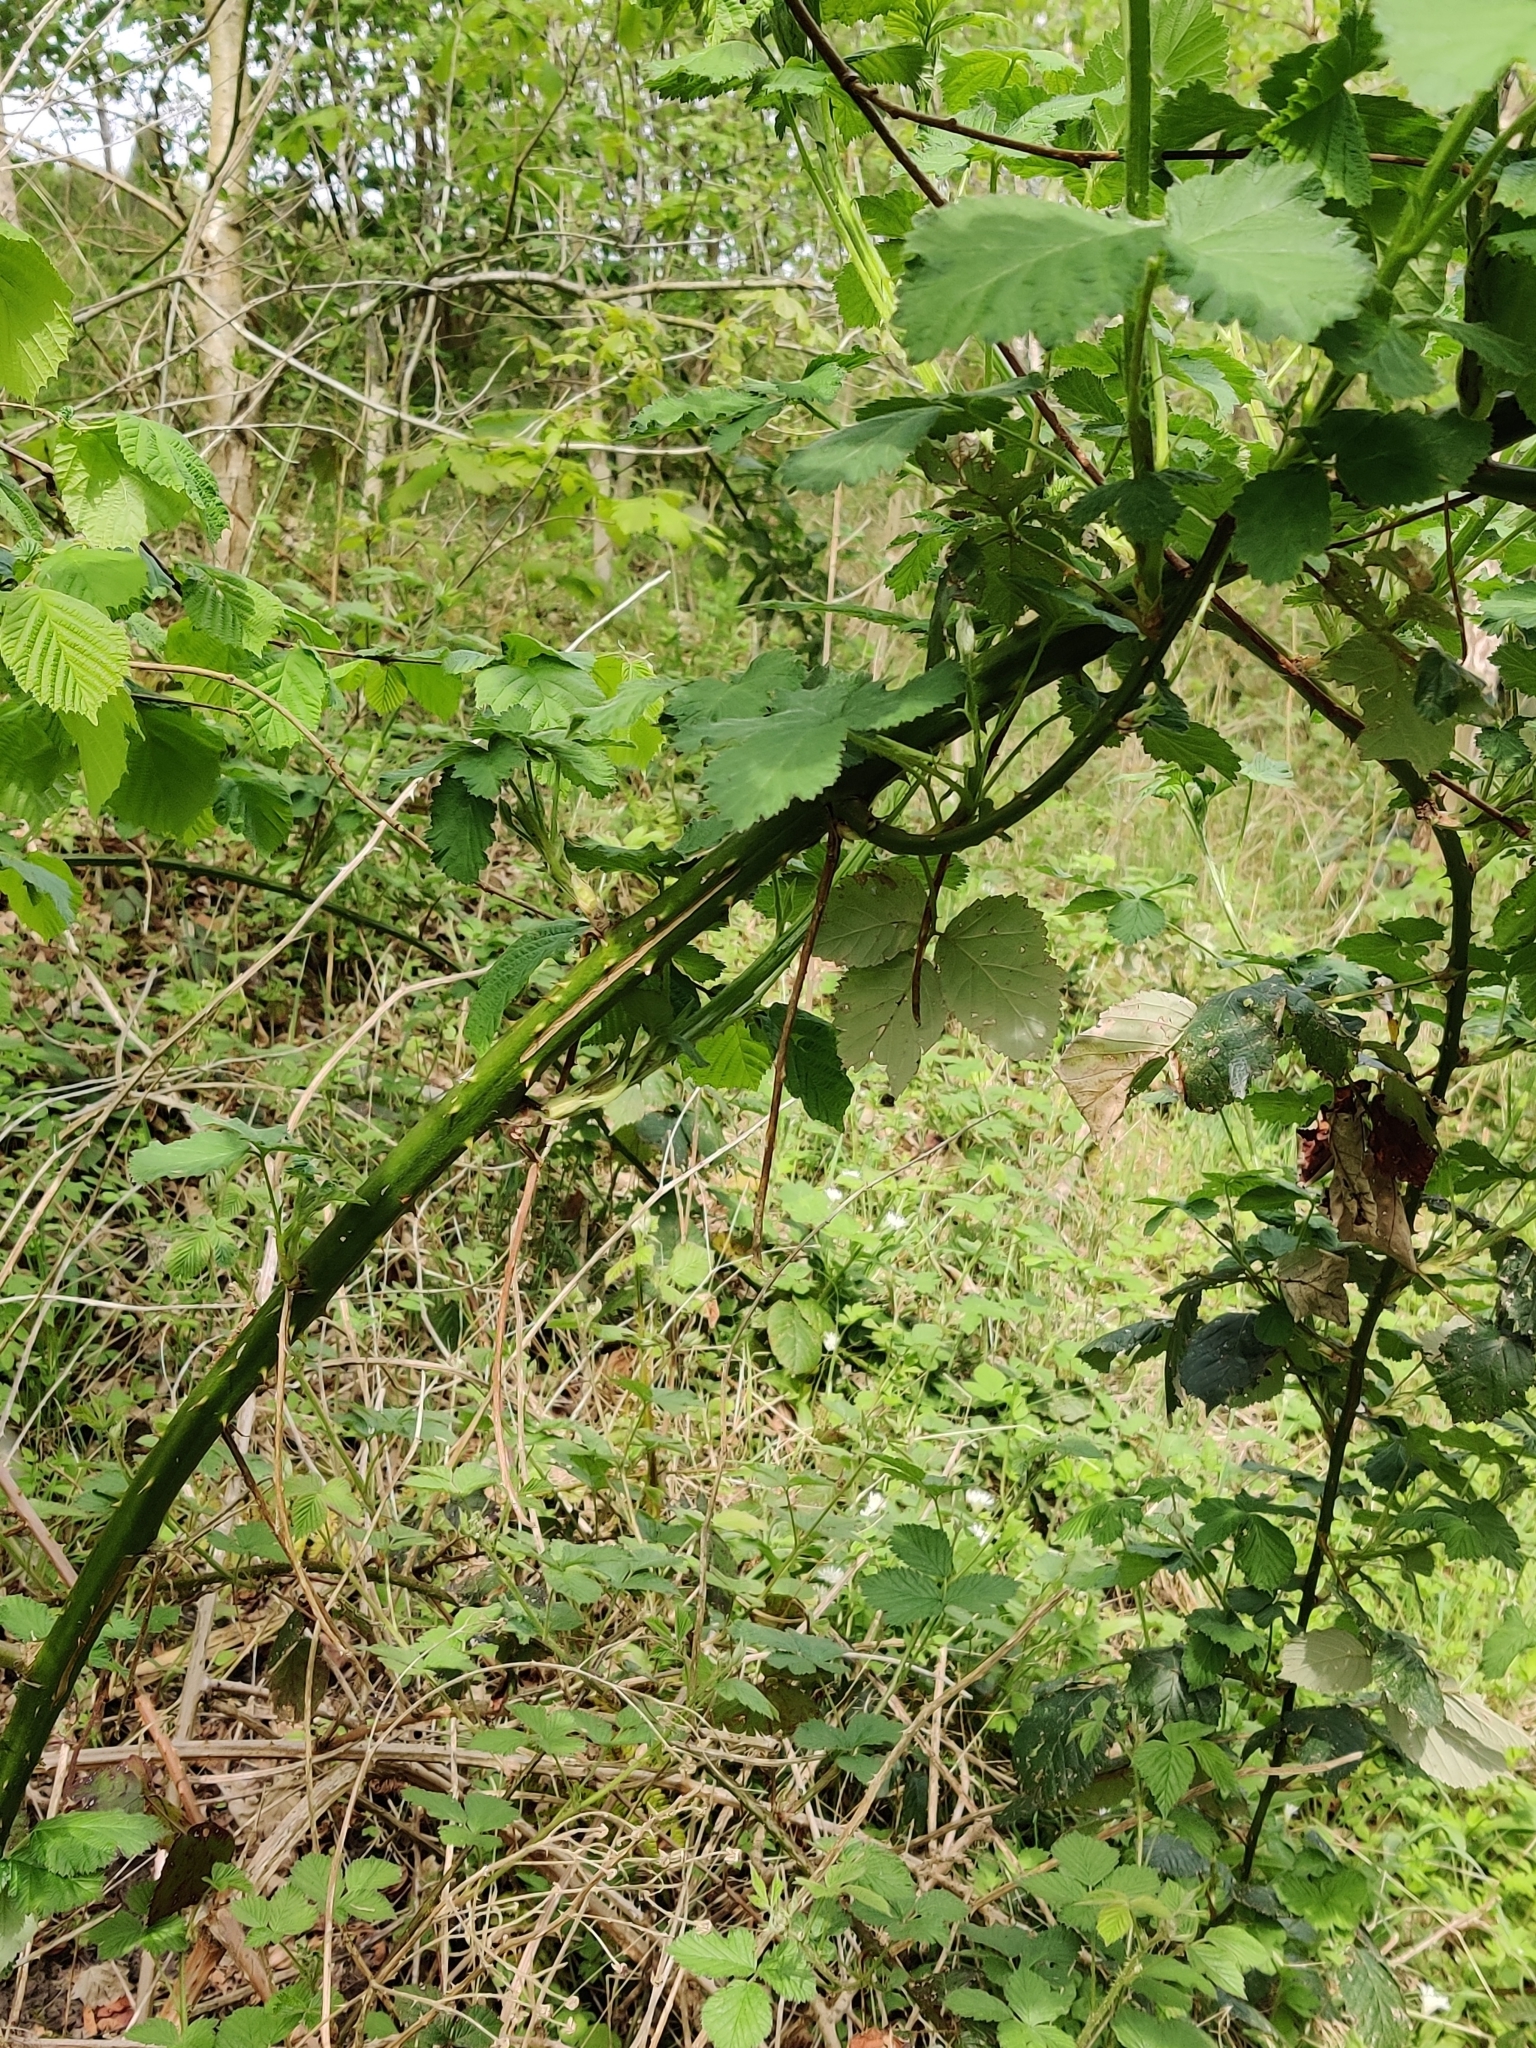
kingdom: Plantae
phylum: Tracheophyta
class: Magnoliopsida
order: Rosales
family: Rosaceae
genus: Rubus
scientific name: Rubus armeniacus
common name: Himalayan blackberry
